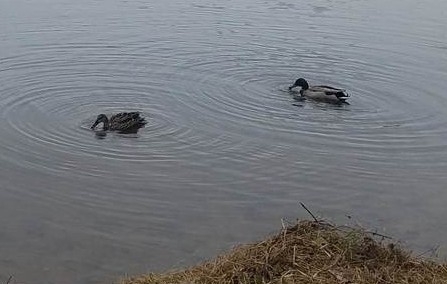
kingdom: Animalia
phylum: Chordata
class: Aves
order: Anseriformes
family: Anatidae
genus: Anas
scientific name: Anas platyrhynchos
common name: Mallard
